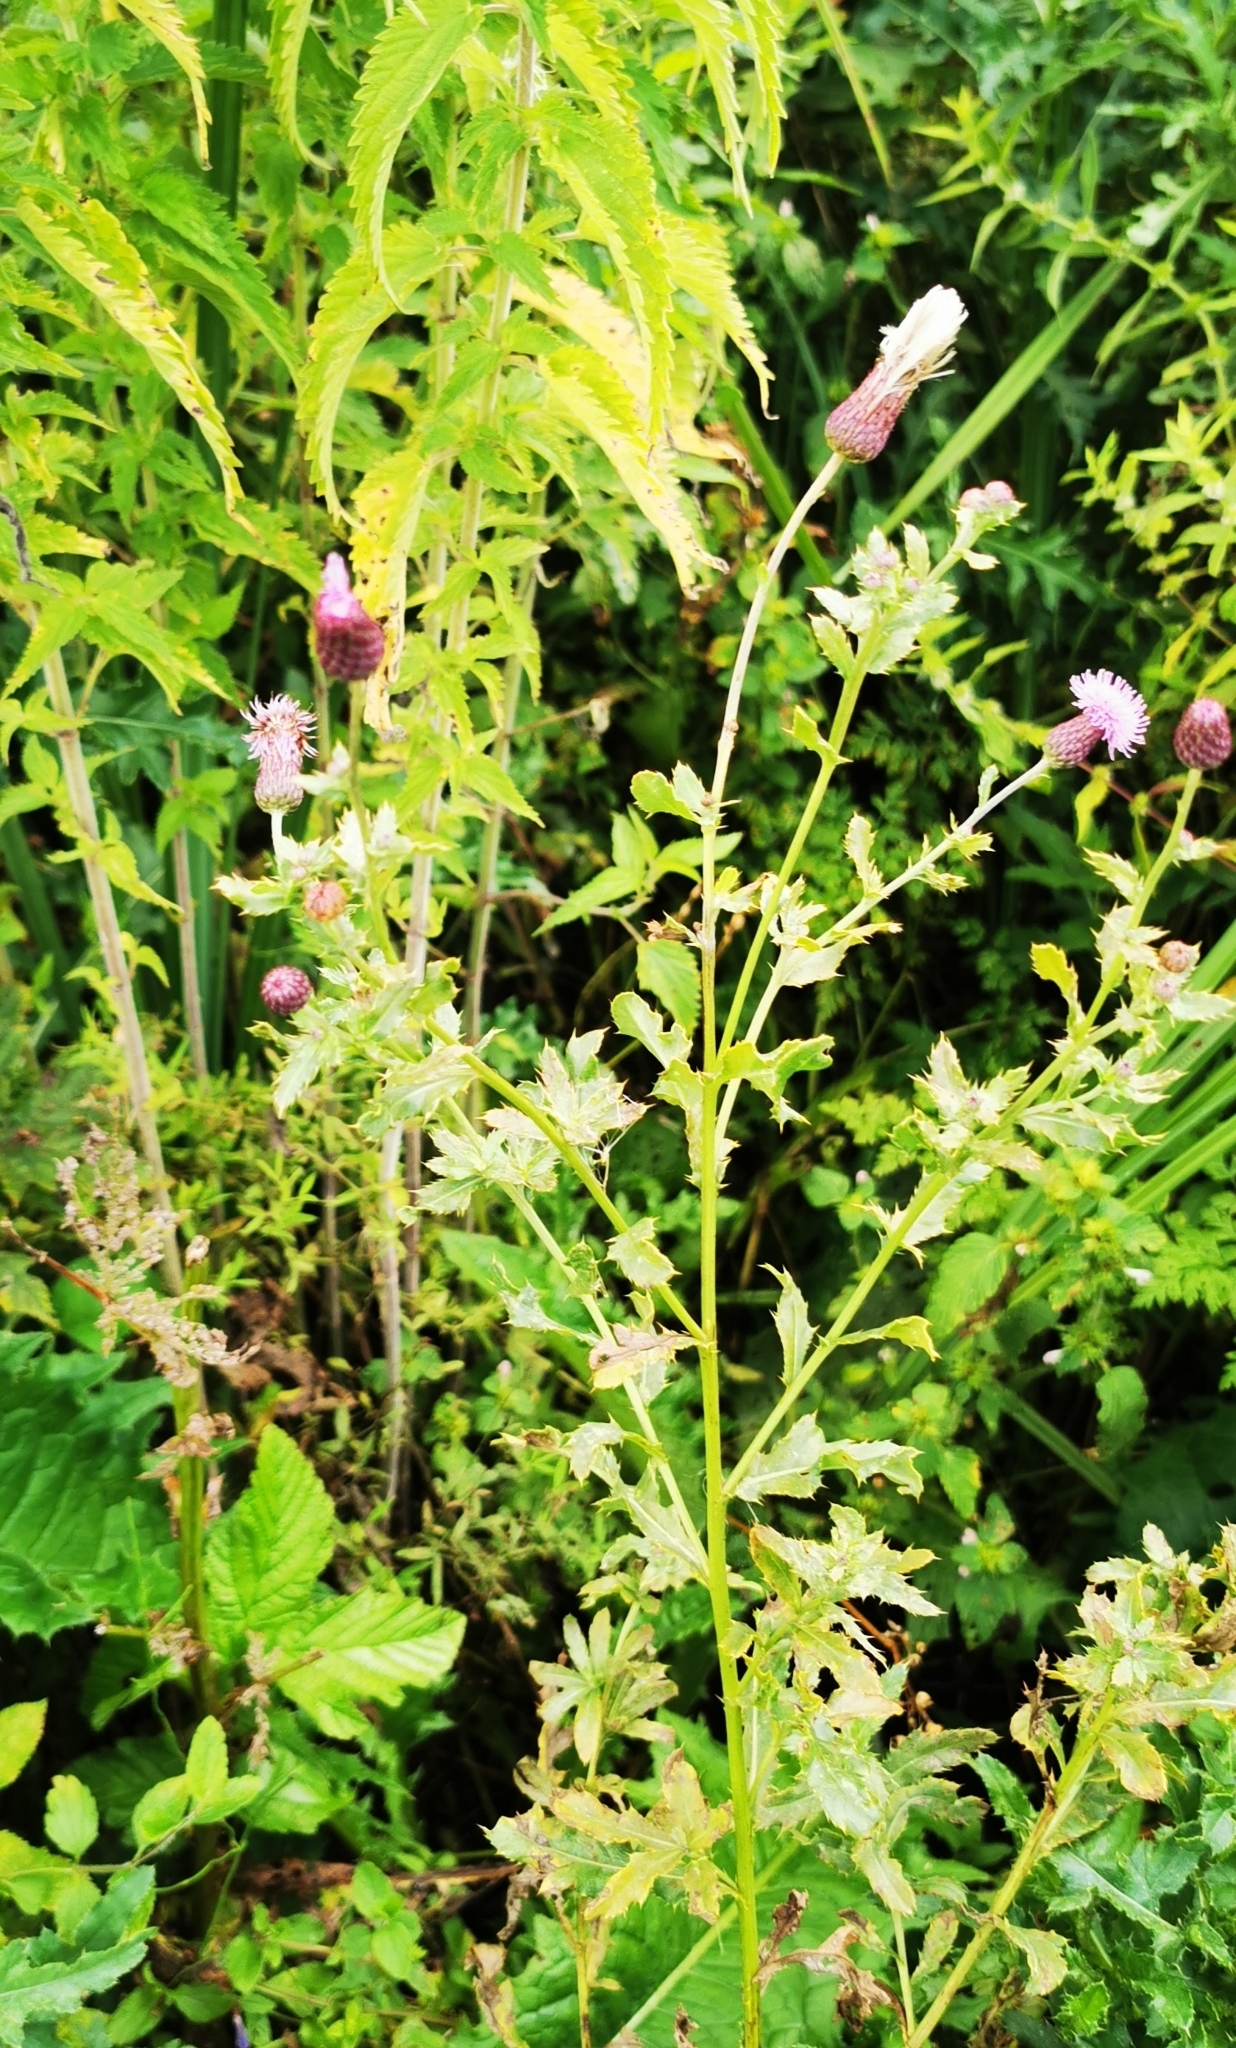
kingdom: Plantae
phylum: Tracheophyta
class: Magnoliopsida
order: Asterales
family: Asteraceae
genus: Cirsium
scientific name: Cirsium arvense
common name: Creeping thistle
